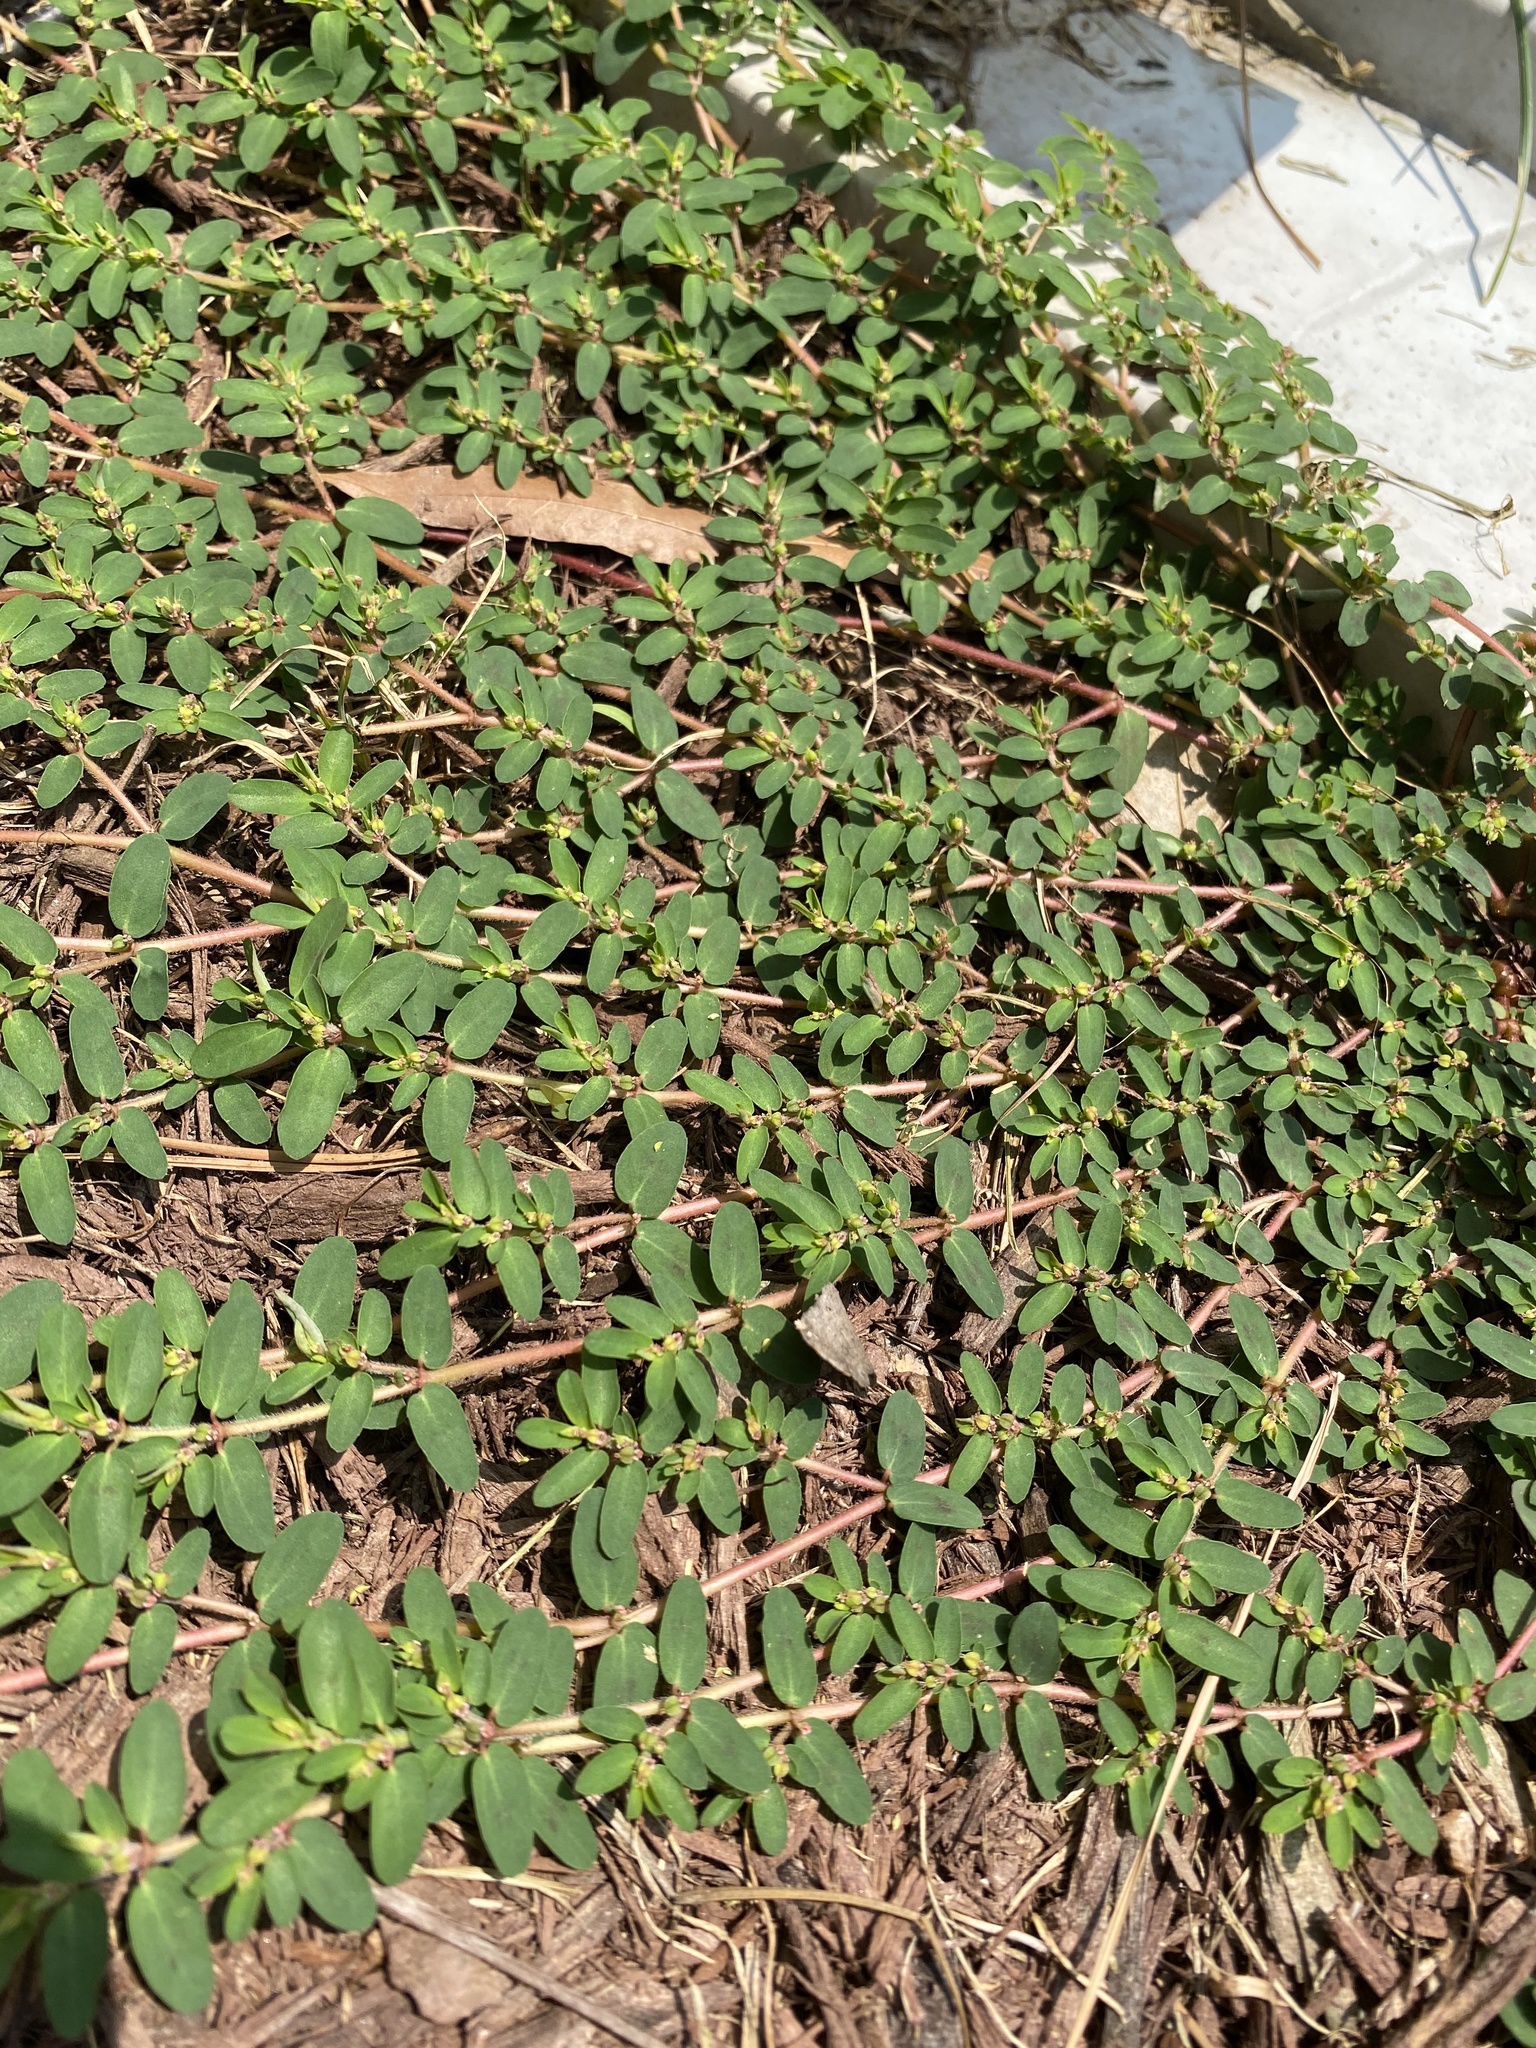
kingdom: Plantae
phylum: Tracheophyta
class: Magnoliopsida
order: Malpighiales
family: Euphorbiaceae
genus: Euphorbia
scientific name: Euphorbia humistrata
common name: Hairy spreading spurge
